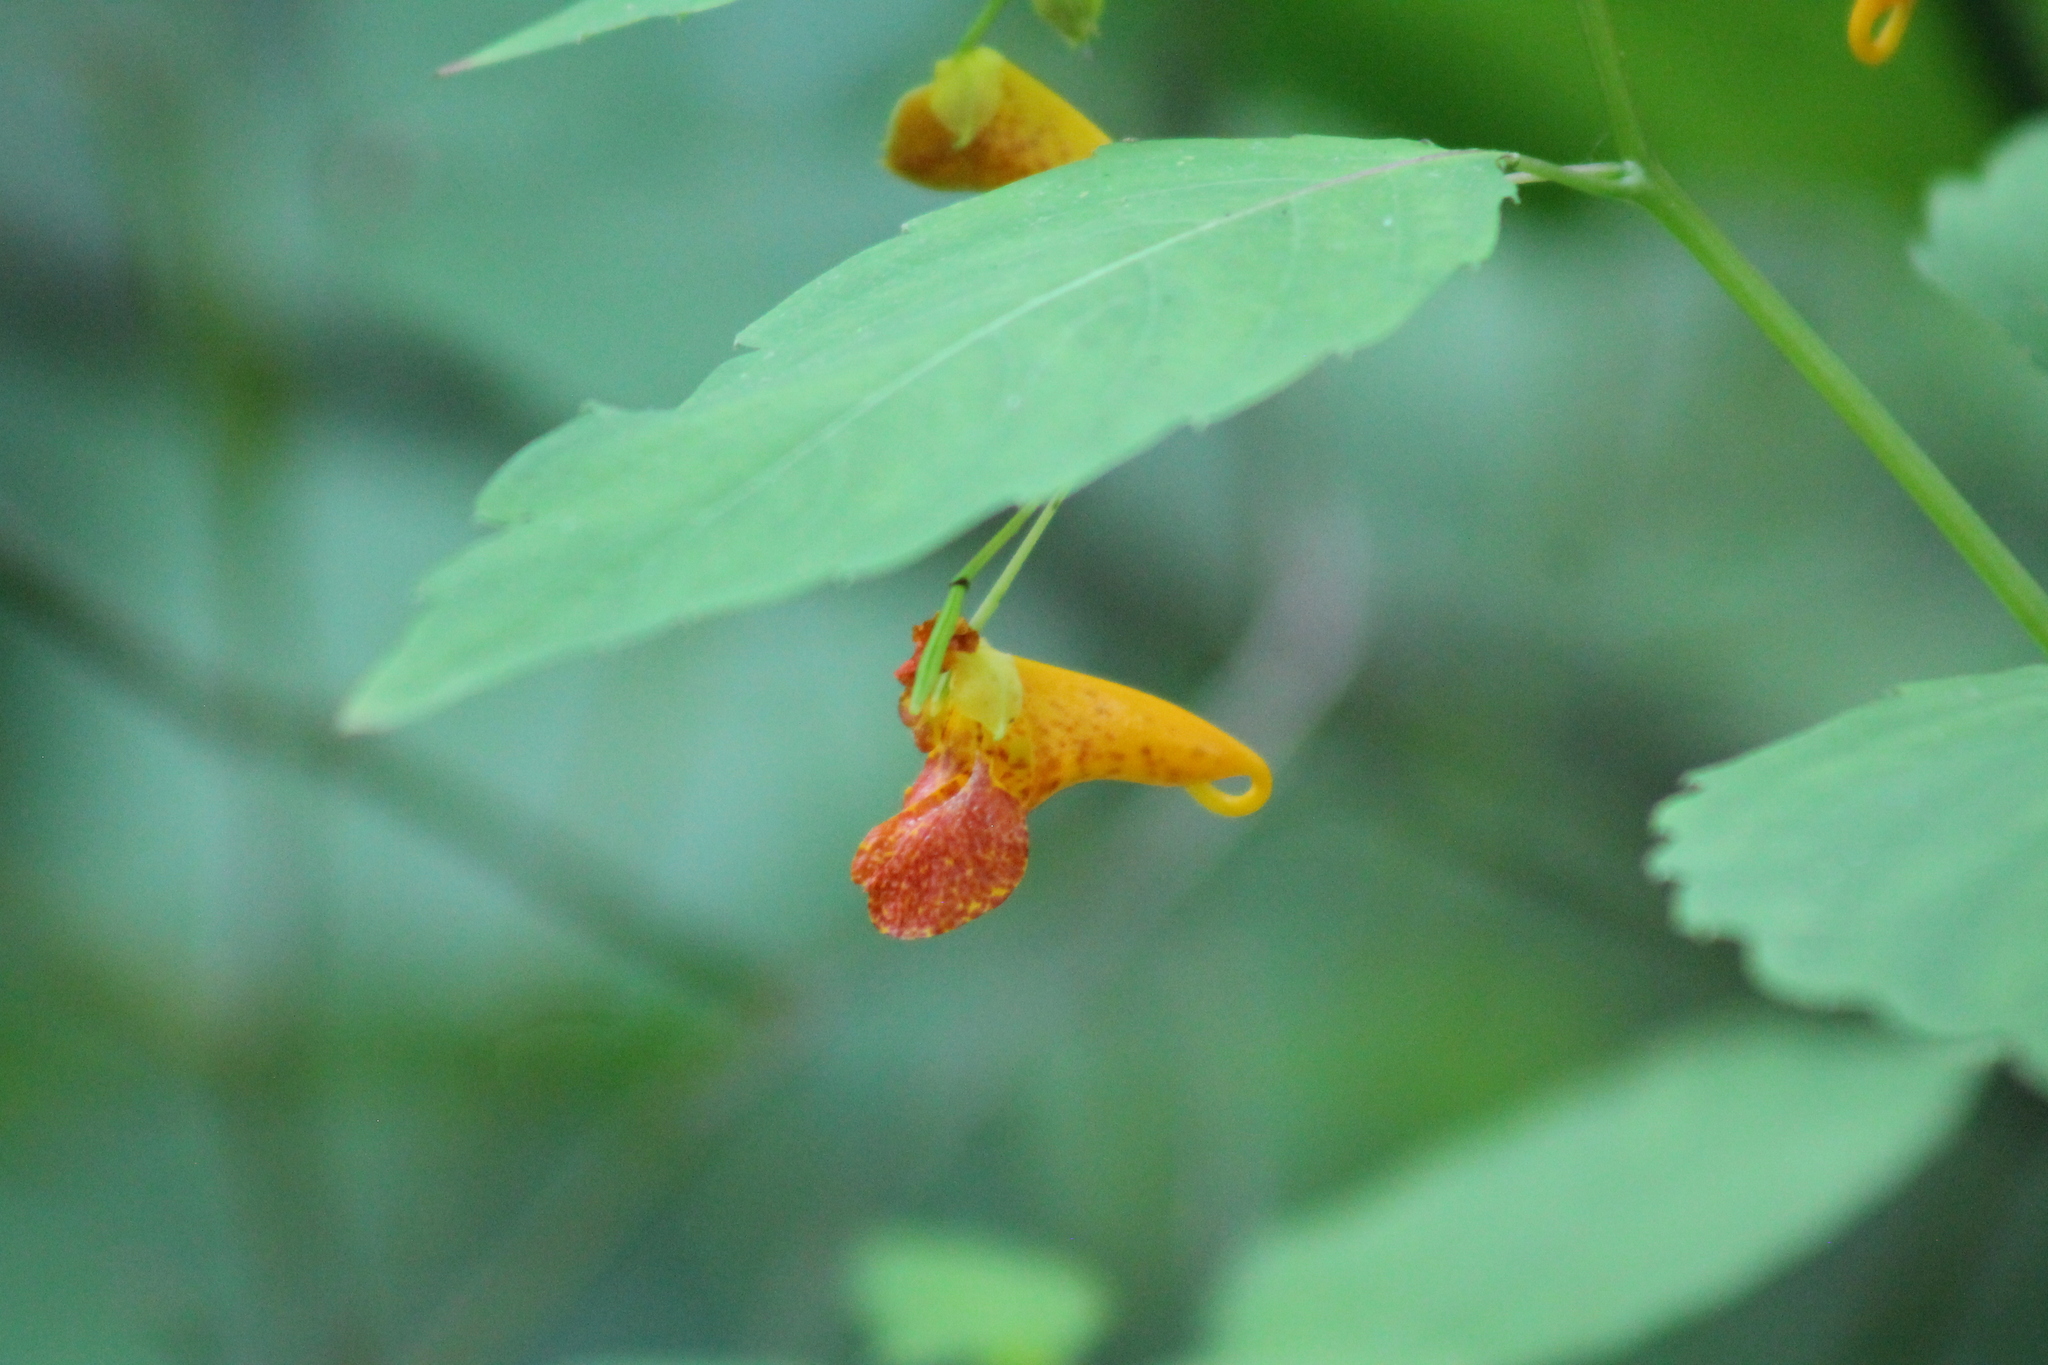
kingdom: Plantae
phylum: Tracheophyta
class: Magnoliopsida
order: Ericales
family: Balsaminaceae
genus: Impatiens
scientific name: Impatiens capensis
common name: Orange balsam
